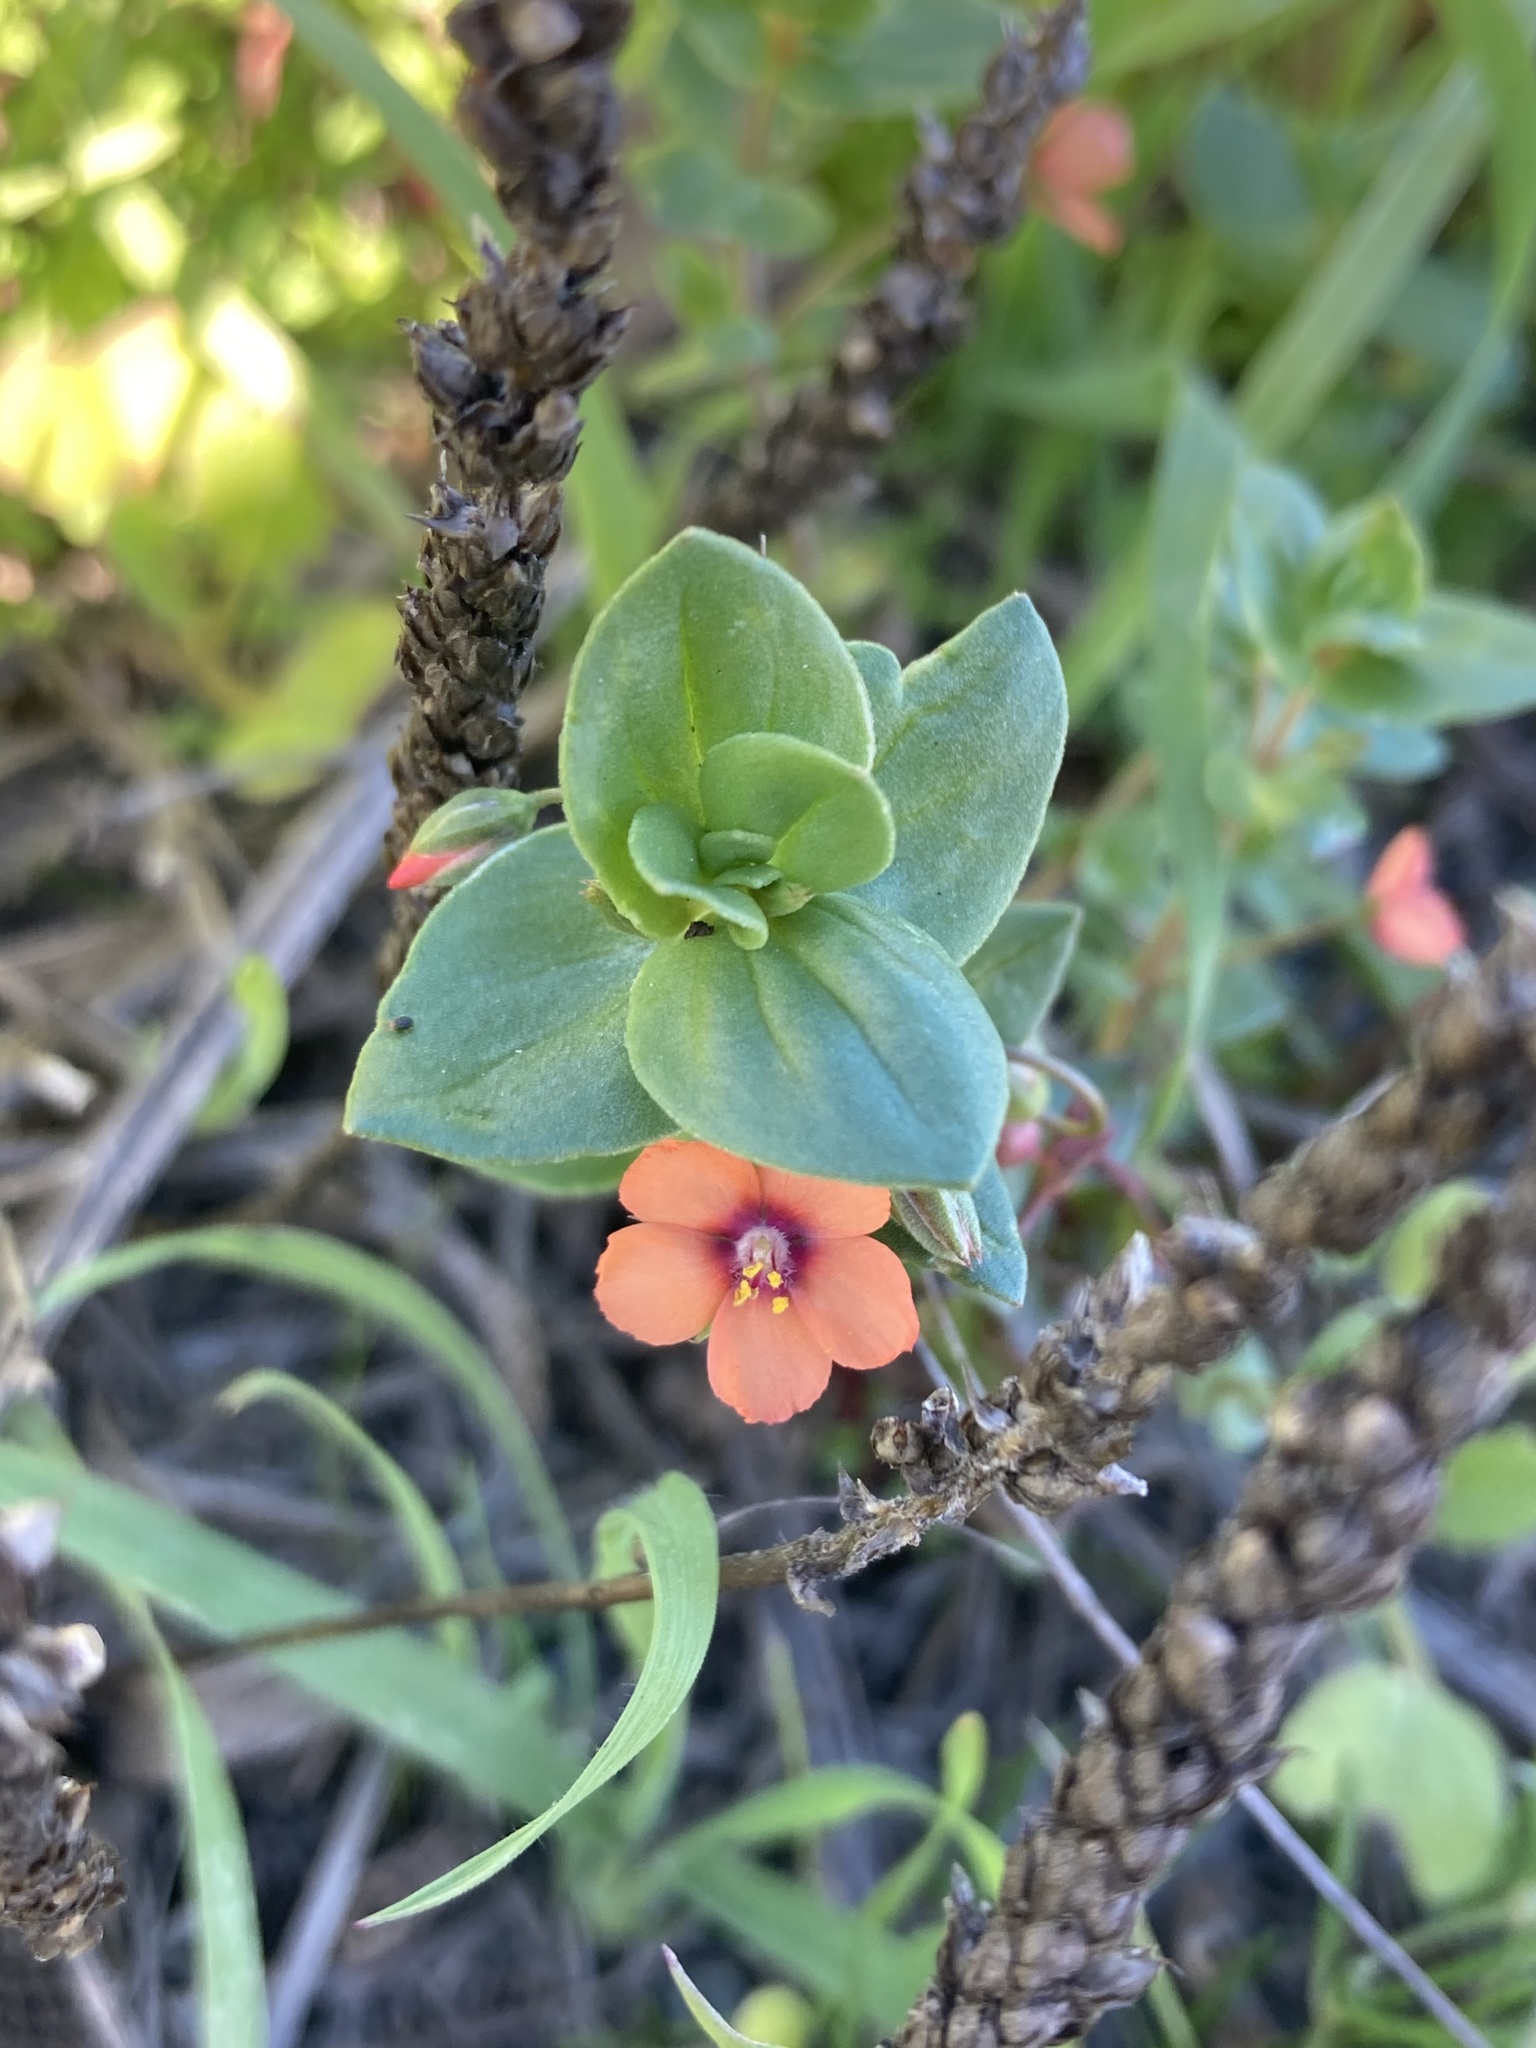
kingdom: Plantae
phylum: Tracheophyta
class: Magnoliopsida
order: Ericales
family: Primulaceae
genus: Lysimachia
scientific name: Lysimachia arvensis
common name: Scarlet pimpernel
